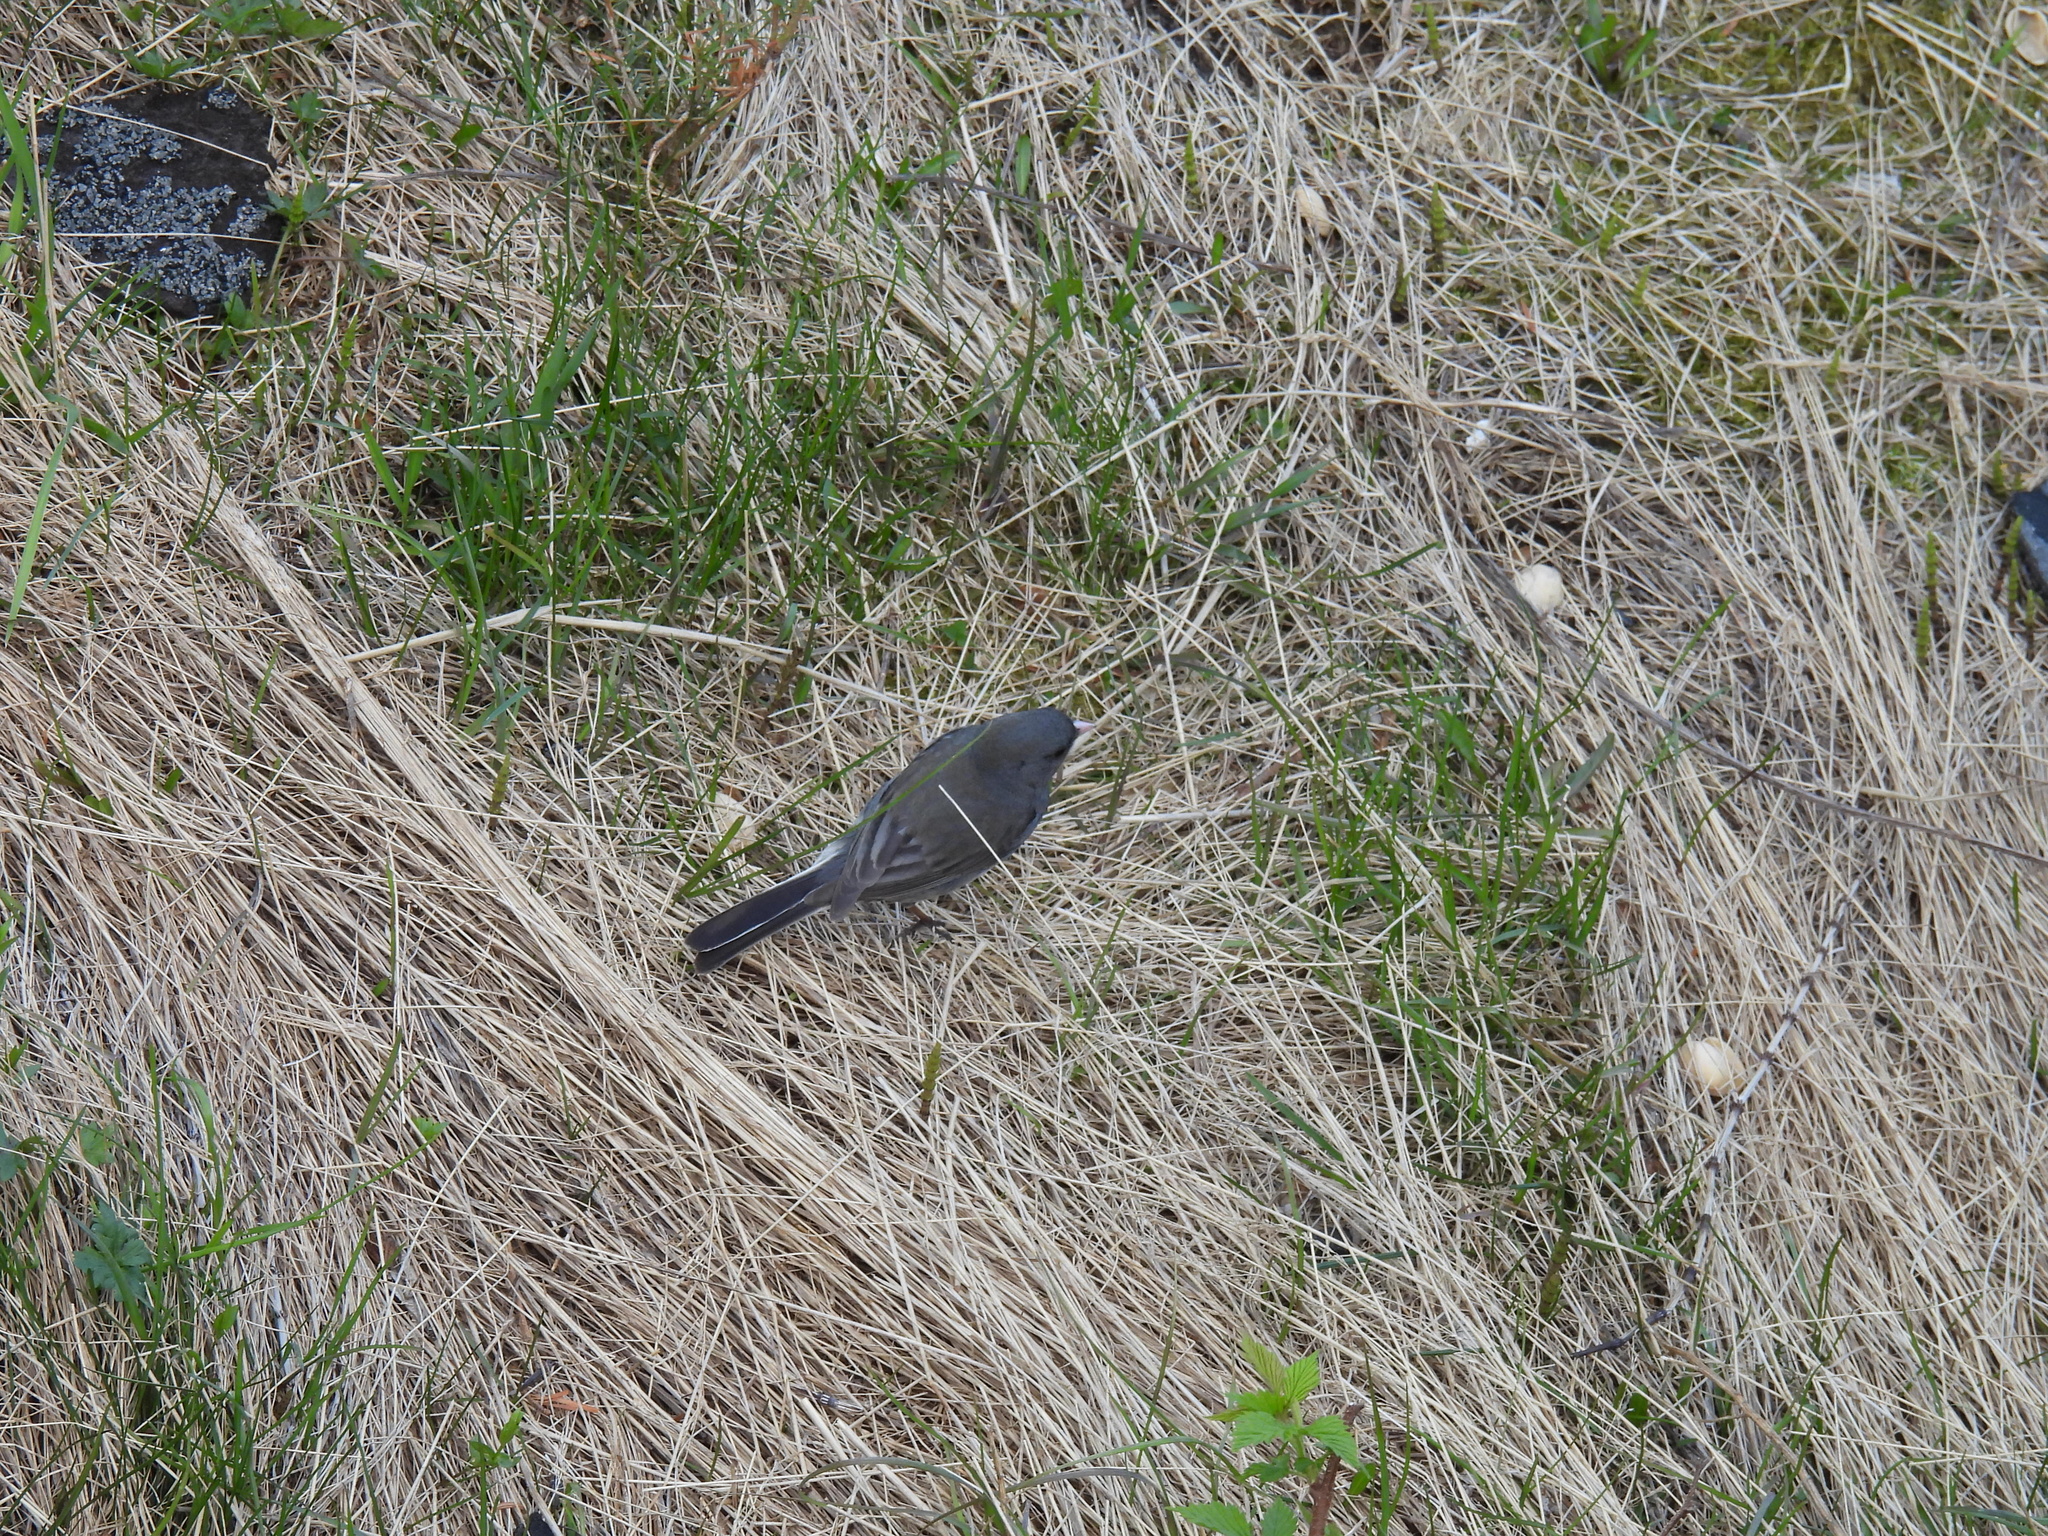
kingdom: Animalia
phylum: Chordata
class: Aves
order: Passeriformes
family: Passerellidae
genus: Junco
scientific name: Junco hyemalis
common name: Dark-eyed junco
